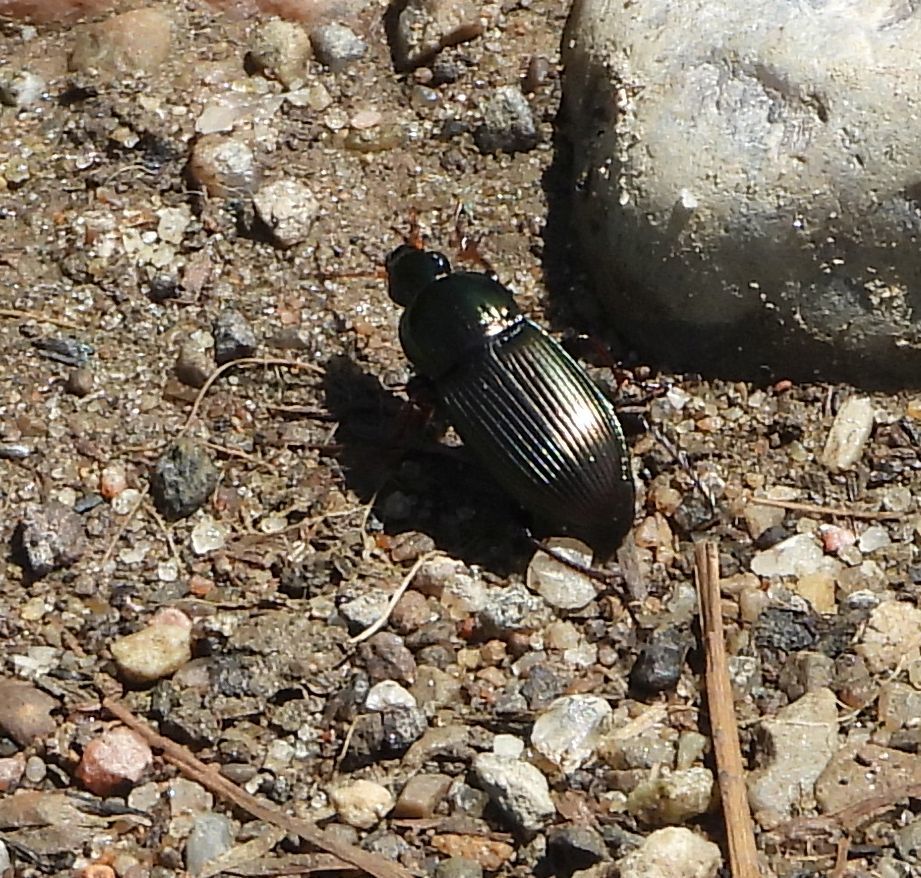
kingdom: Animalia
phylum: Arthropoda
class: Insecta
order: Coleoptera
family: Carabidae
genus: Poecilus
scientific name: Poecilus lucublandus
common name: Woodland ground beetle
